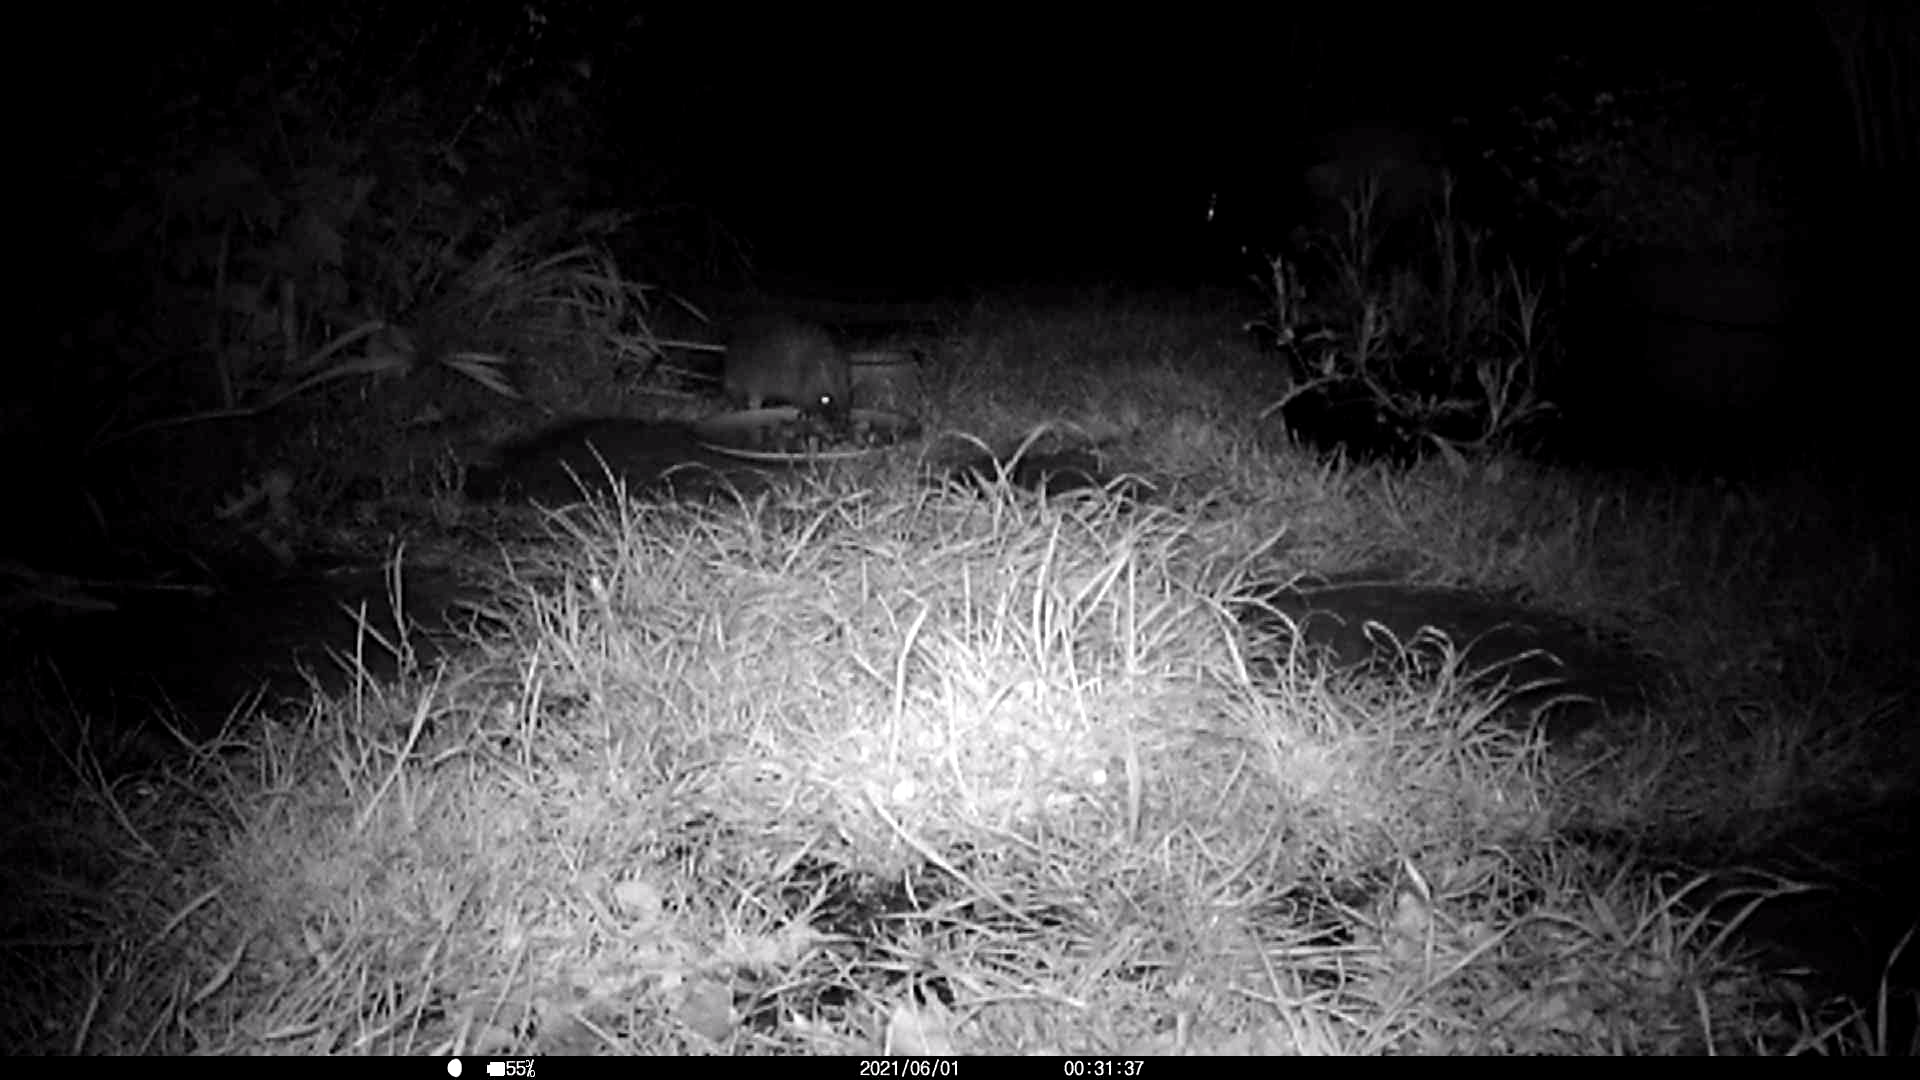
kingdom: Animalia
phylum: Chordata
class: Mammalia
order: Erinaceomorpha
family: Erinaceidae
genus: Erinaceus
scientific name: Erinaceus europaeus
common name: West european hedgehog
